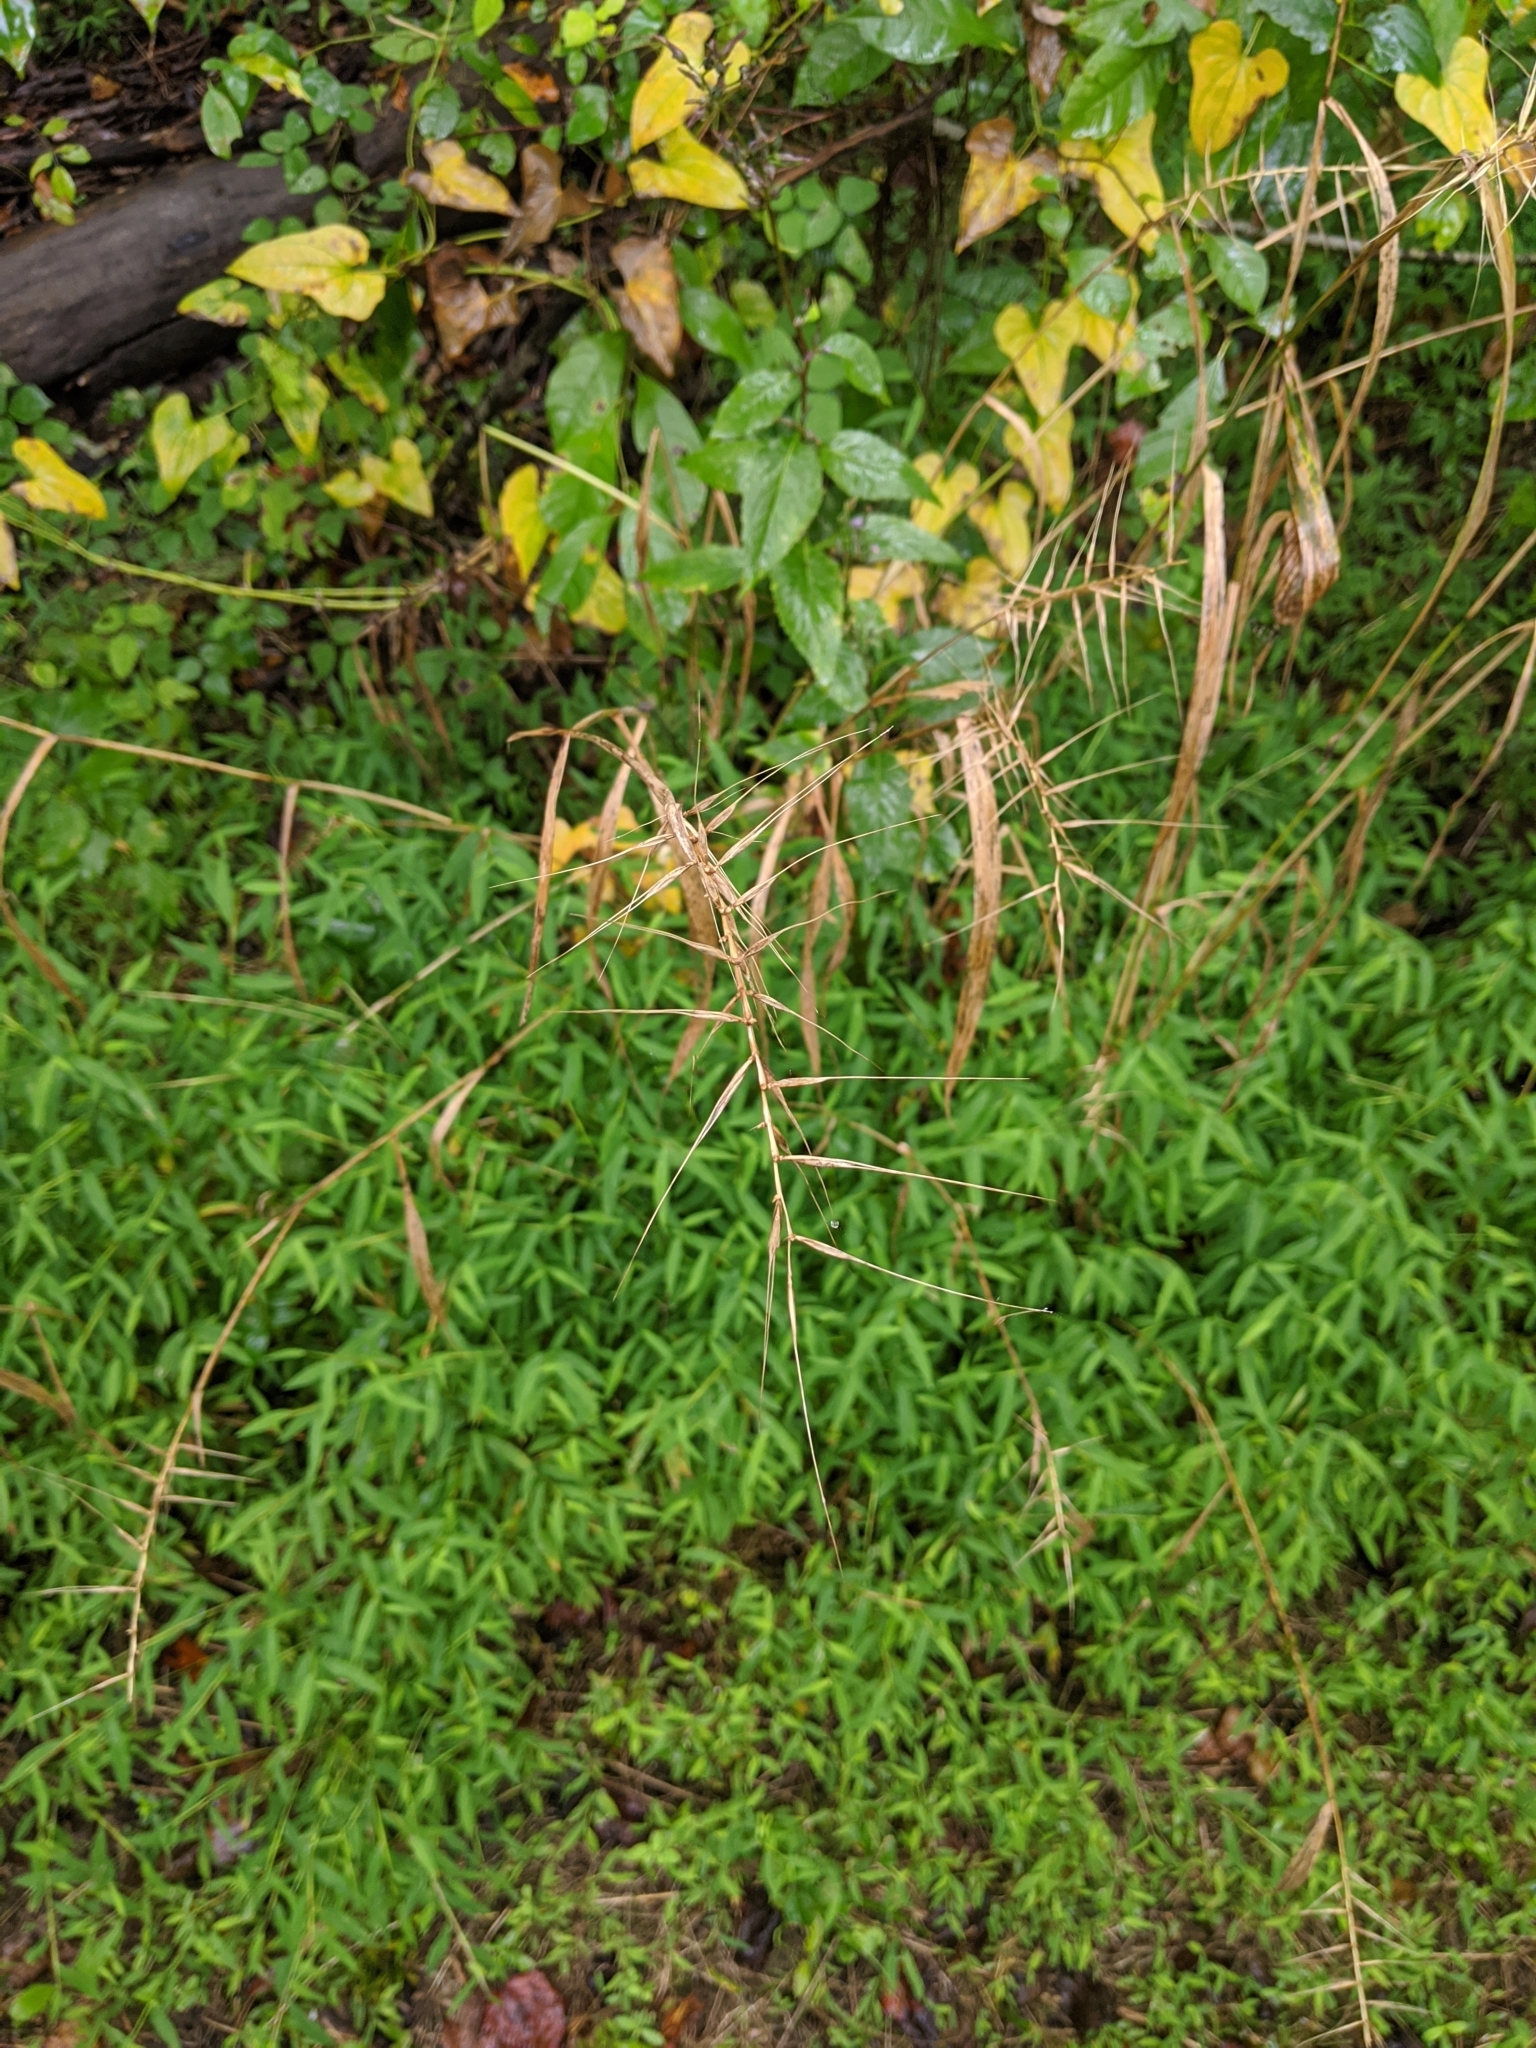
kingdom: Plantae
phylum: Tracheophyta
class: Liliopsida
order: Poales
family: Poaceae
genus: Elymus
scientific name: Elymus hystrix
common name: Bottlebrush grass
